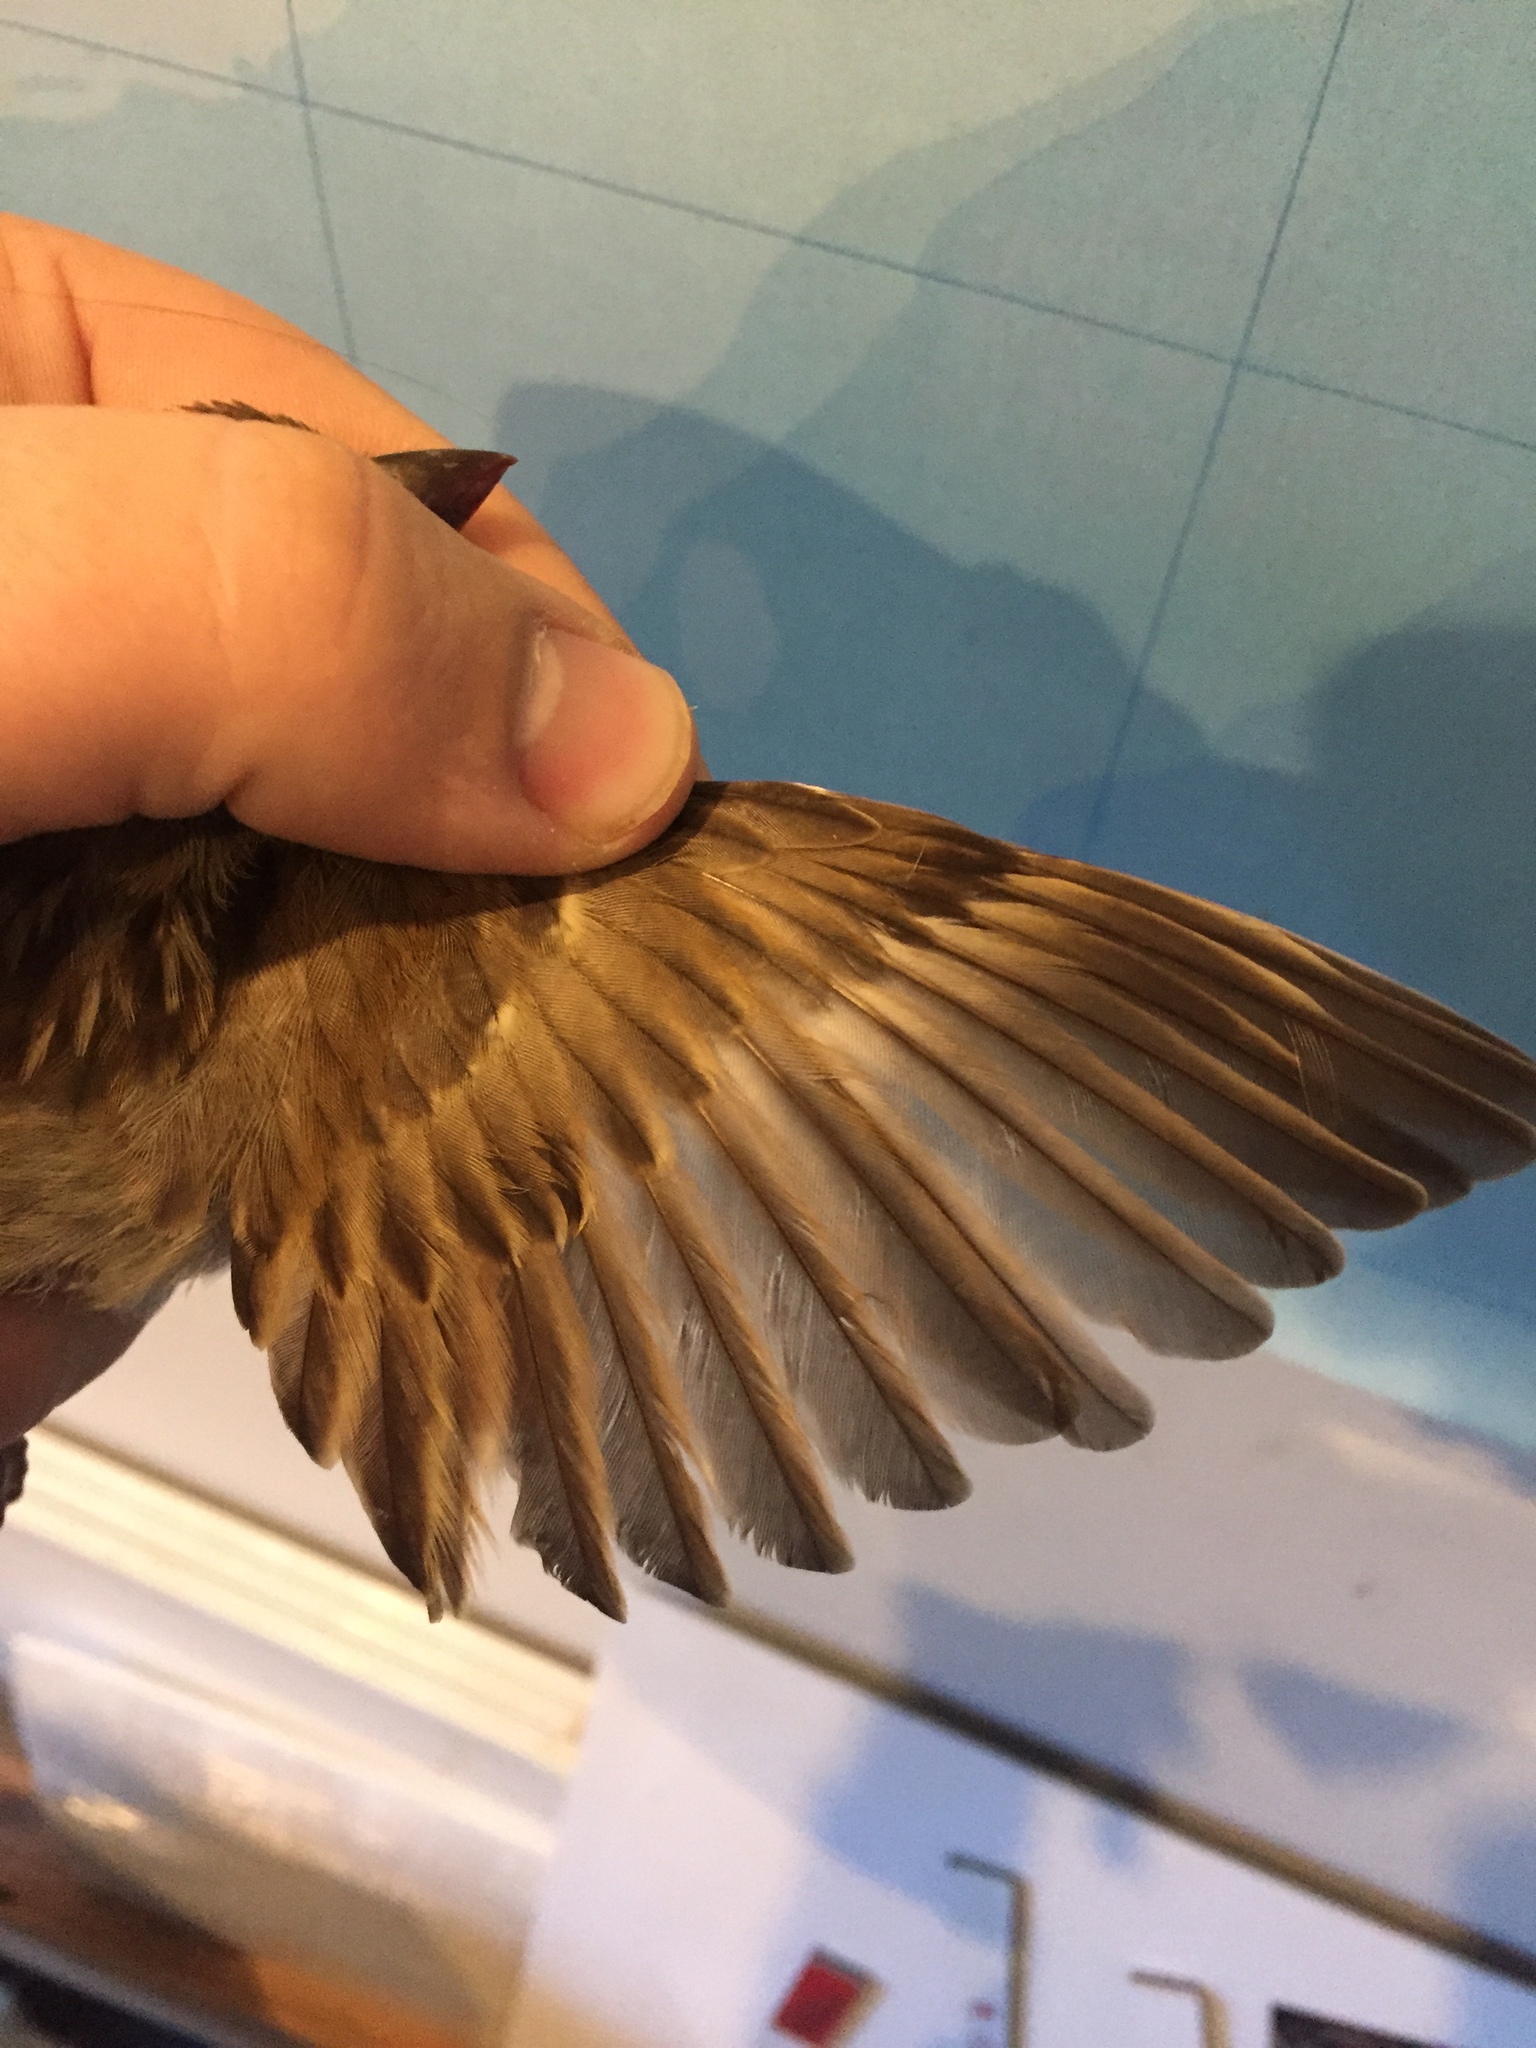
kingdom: Animalia
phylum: Chordata
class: Aves
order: Passeriformes
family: Passeridae
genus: Passer
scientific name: Passer domesticus
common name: House sparrow
